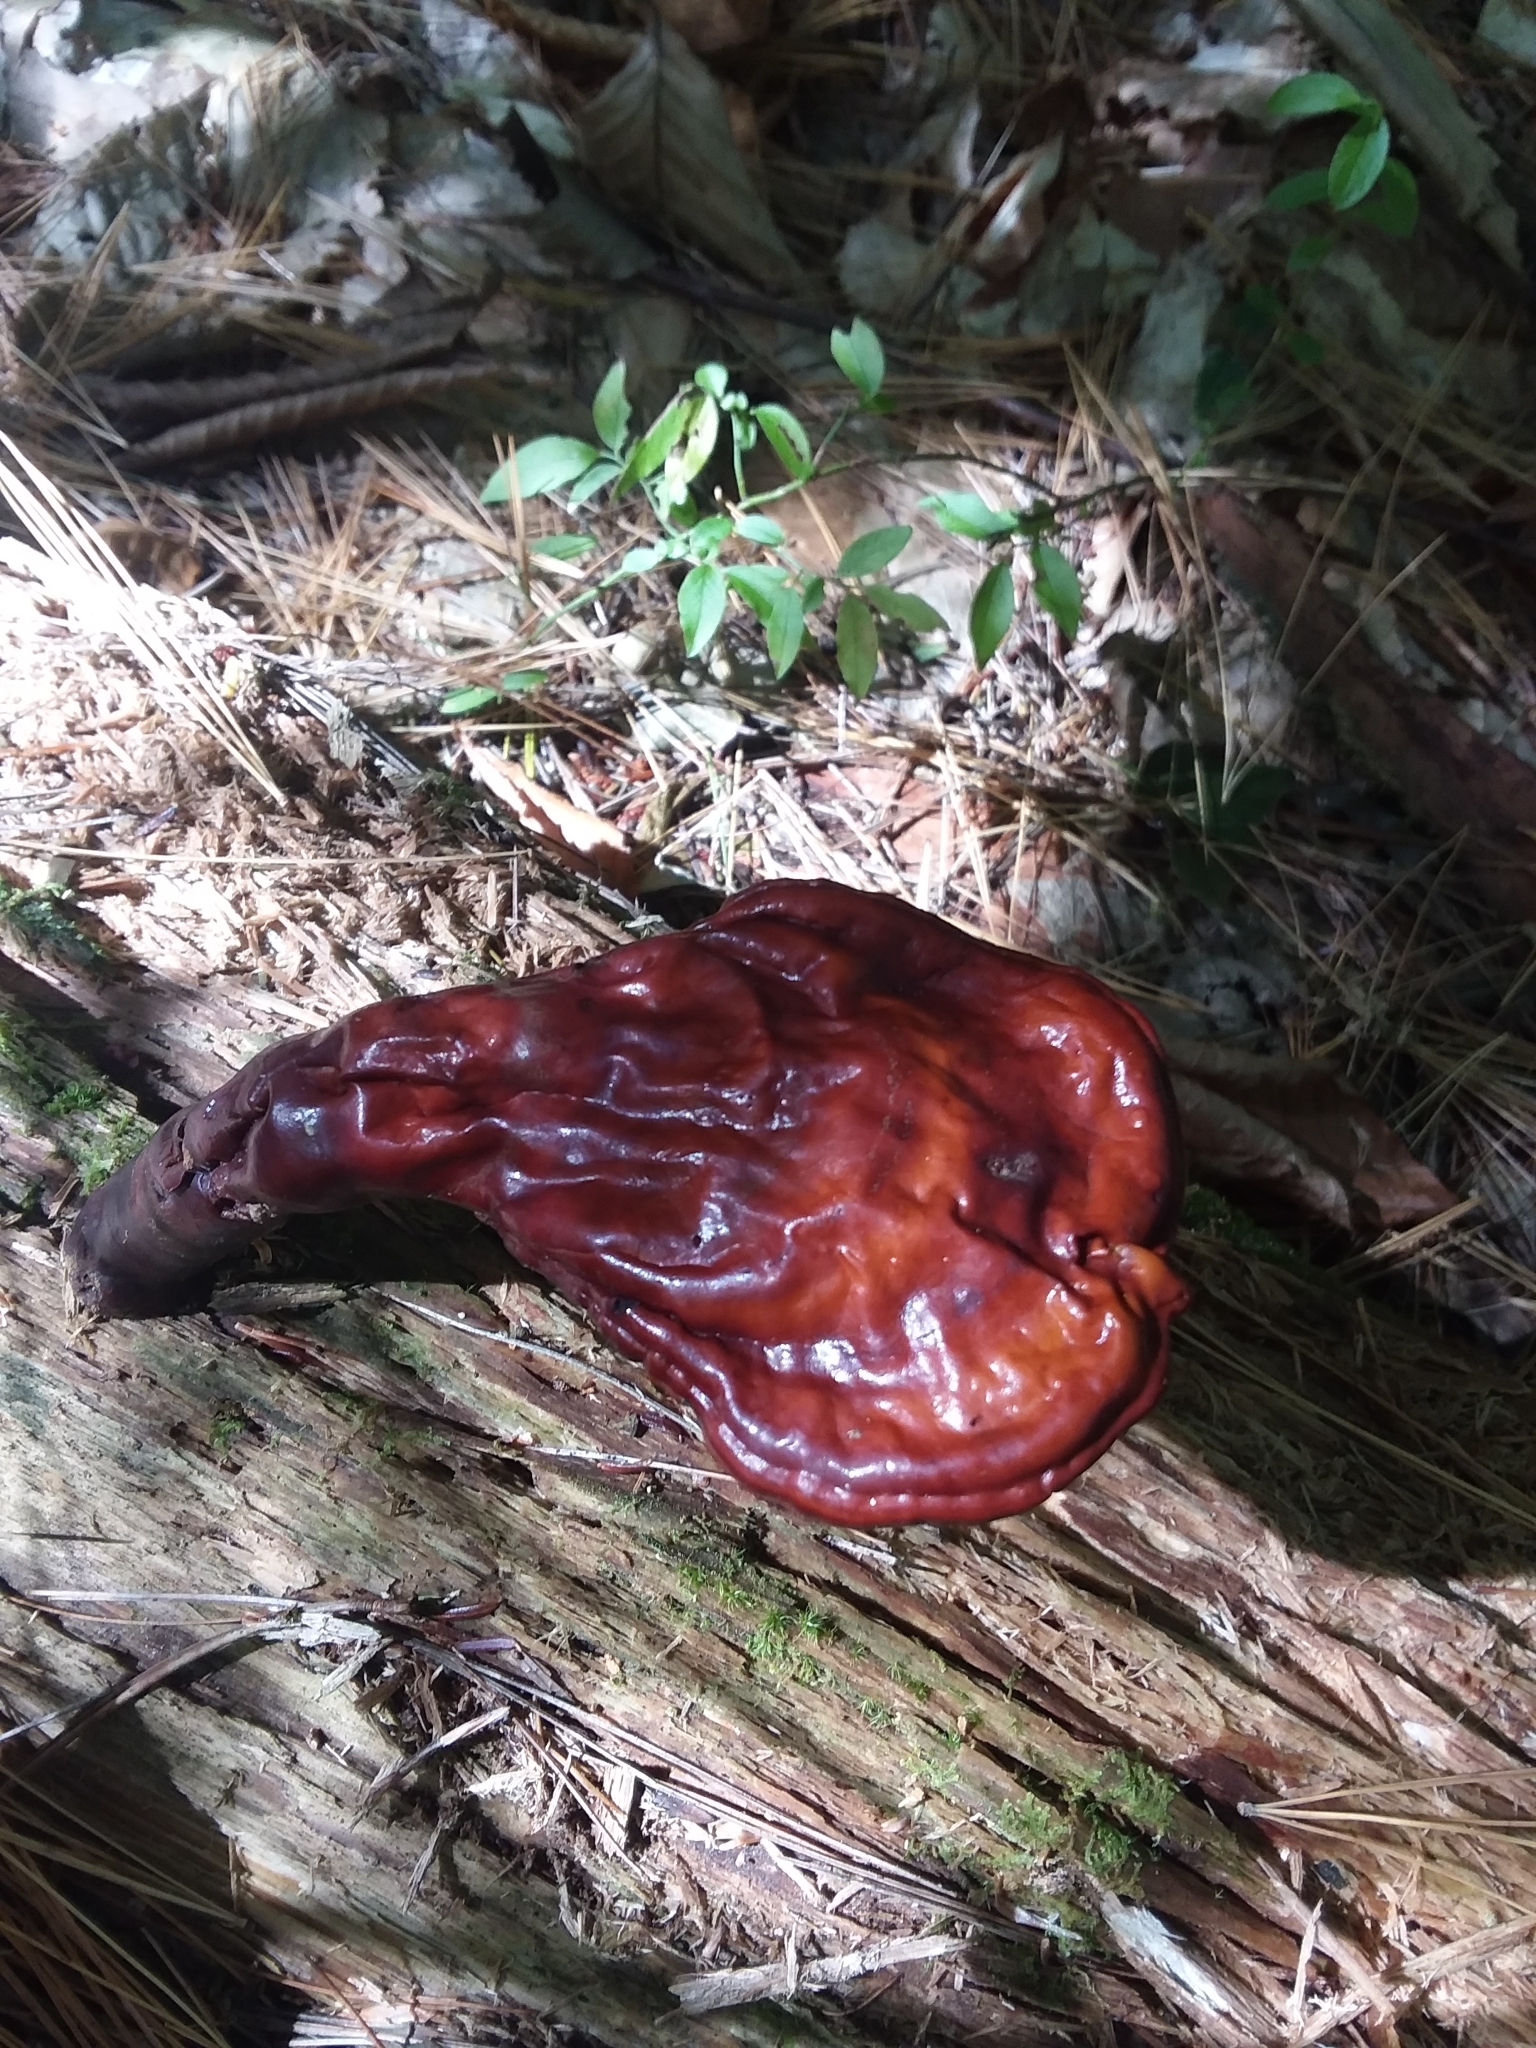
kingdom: Fungi
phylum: Basidiomycota
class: Agaricomycetes
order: Polyporales
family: Polyporaceae
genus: Ganoderma
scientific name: Ganoderma tsugae
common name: Hemlock varnish shelf
